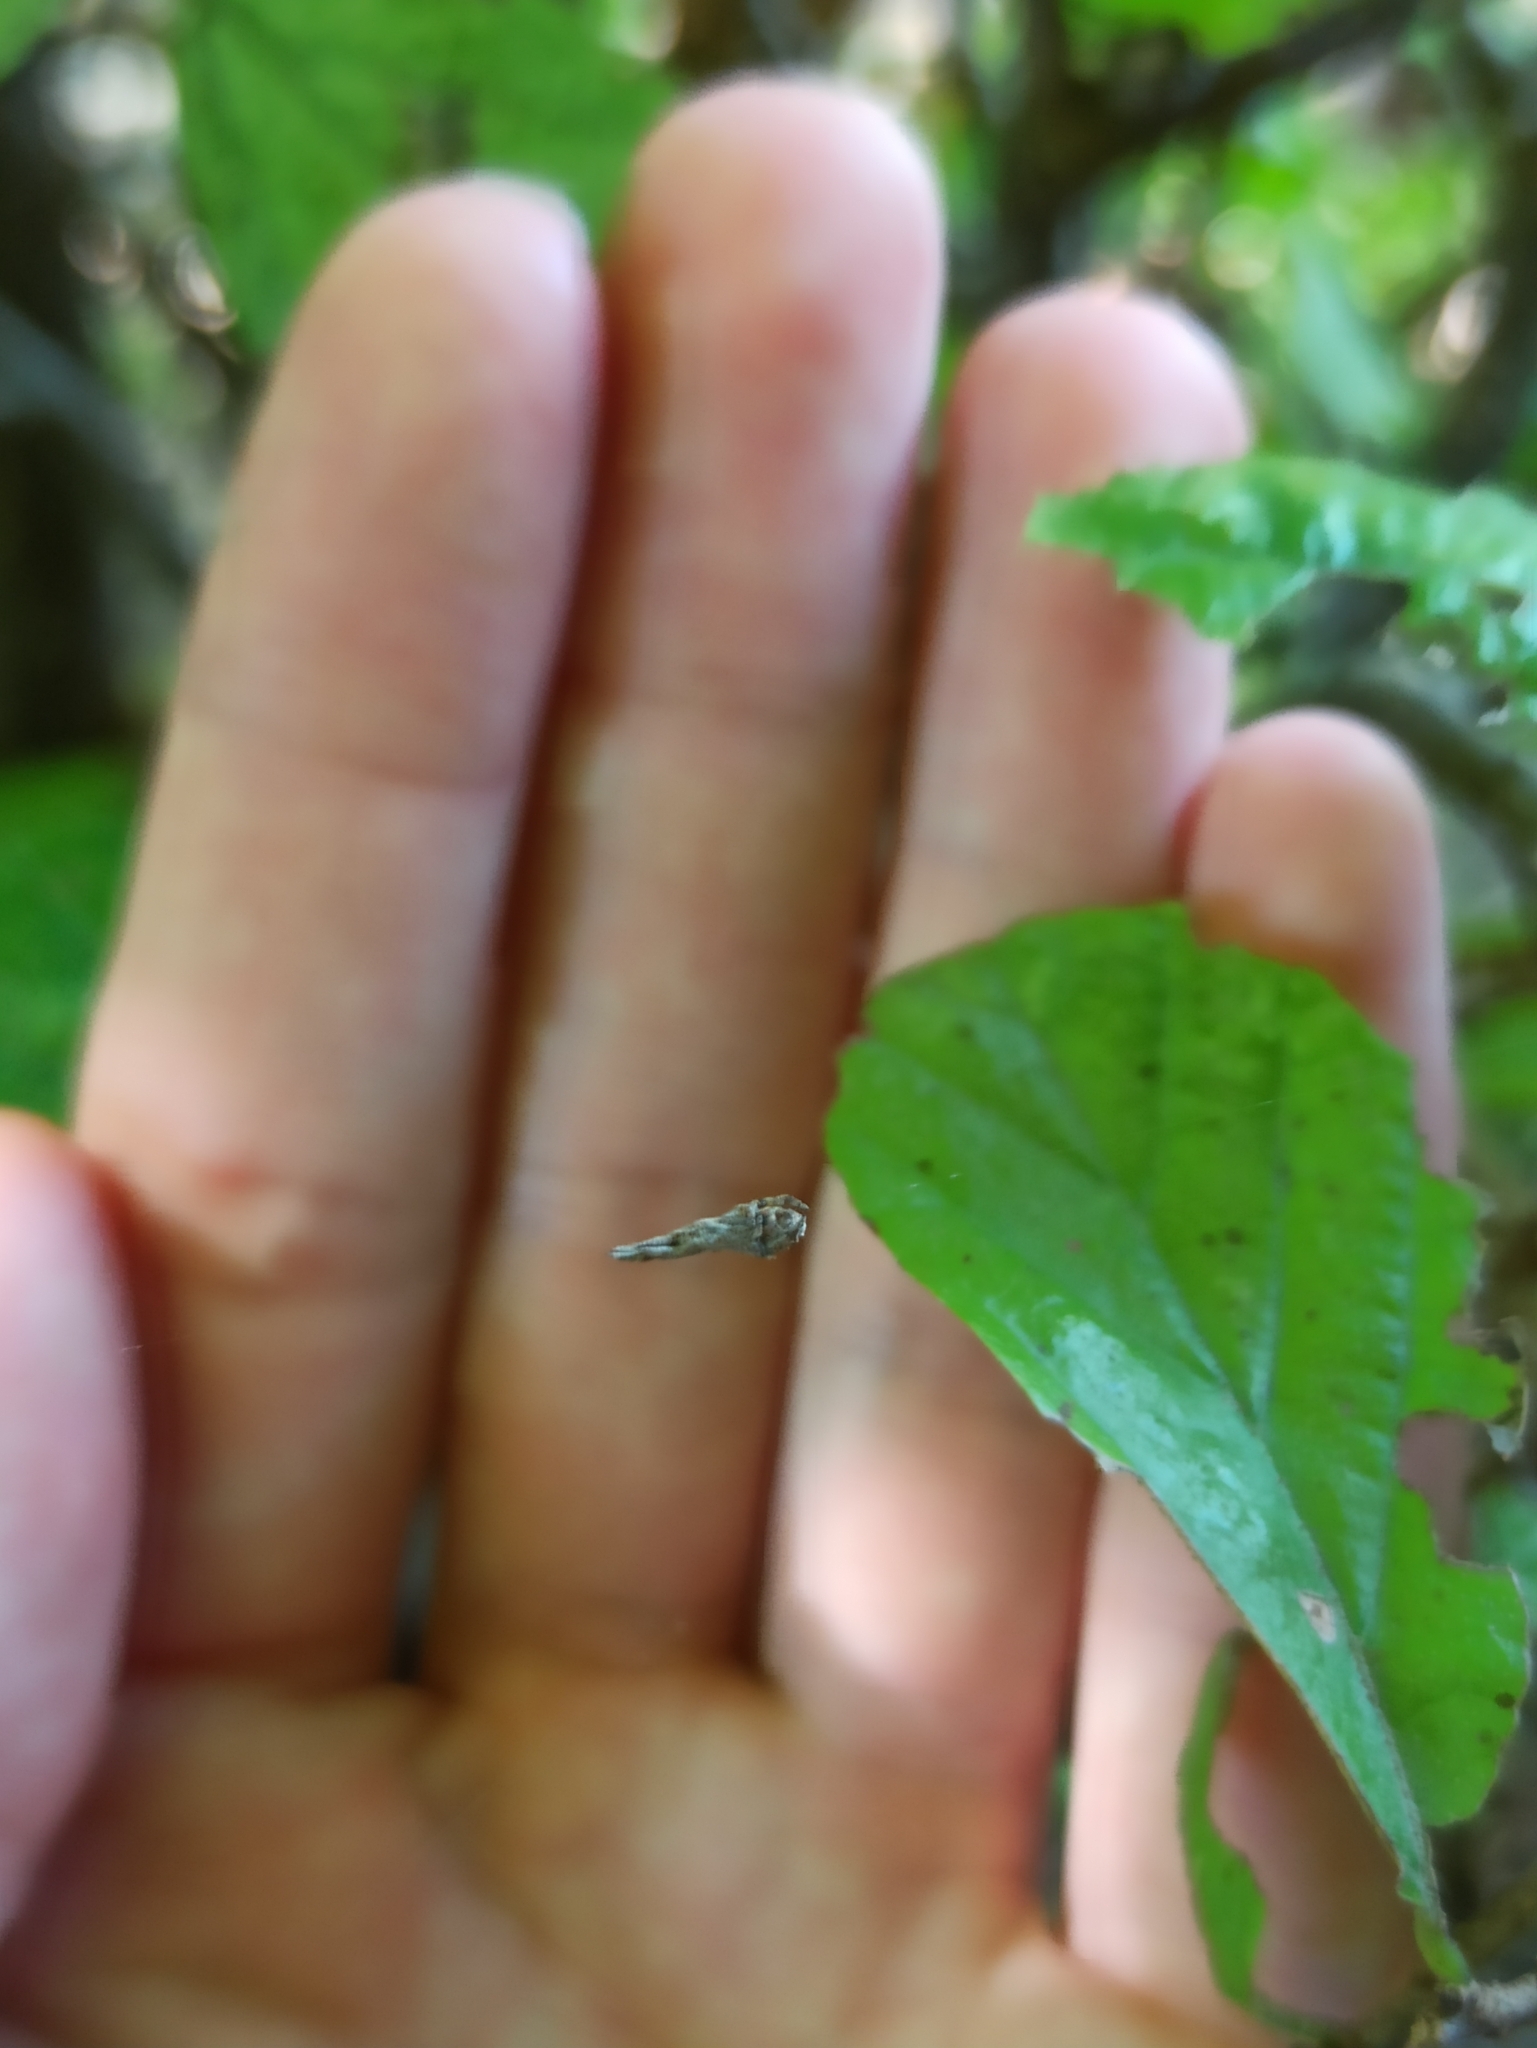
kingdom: Animalia
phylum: Arthropoda
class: Arachnida
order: Araneae
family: Uloboridae
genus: Hyptiotes
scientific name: Hyptiotes paradoxus
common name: Triangle spider
